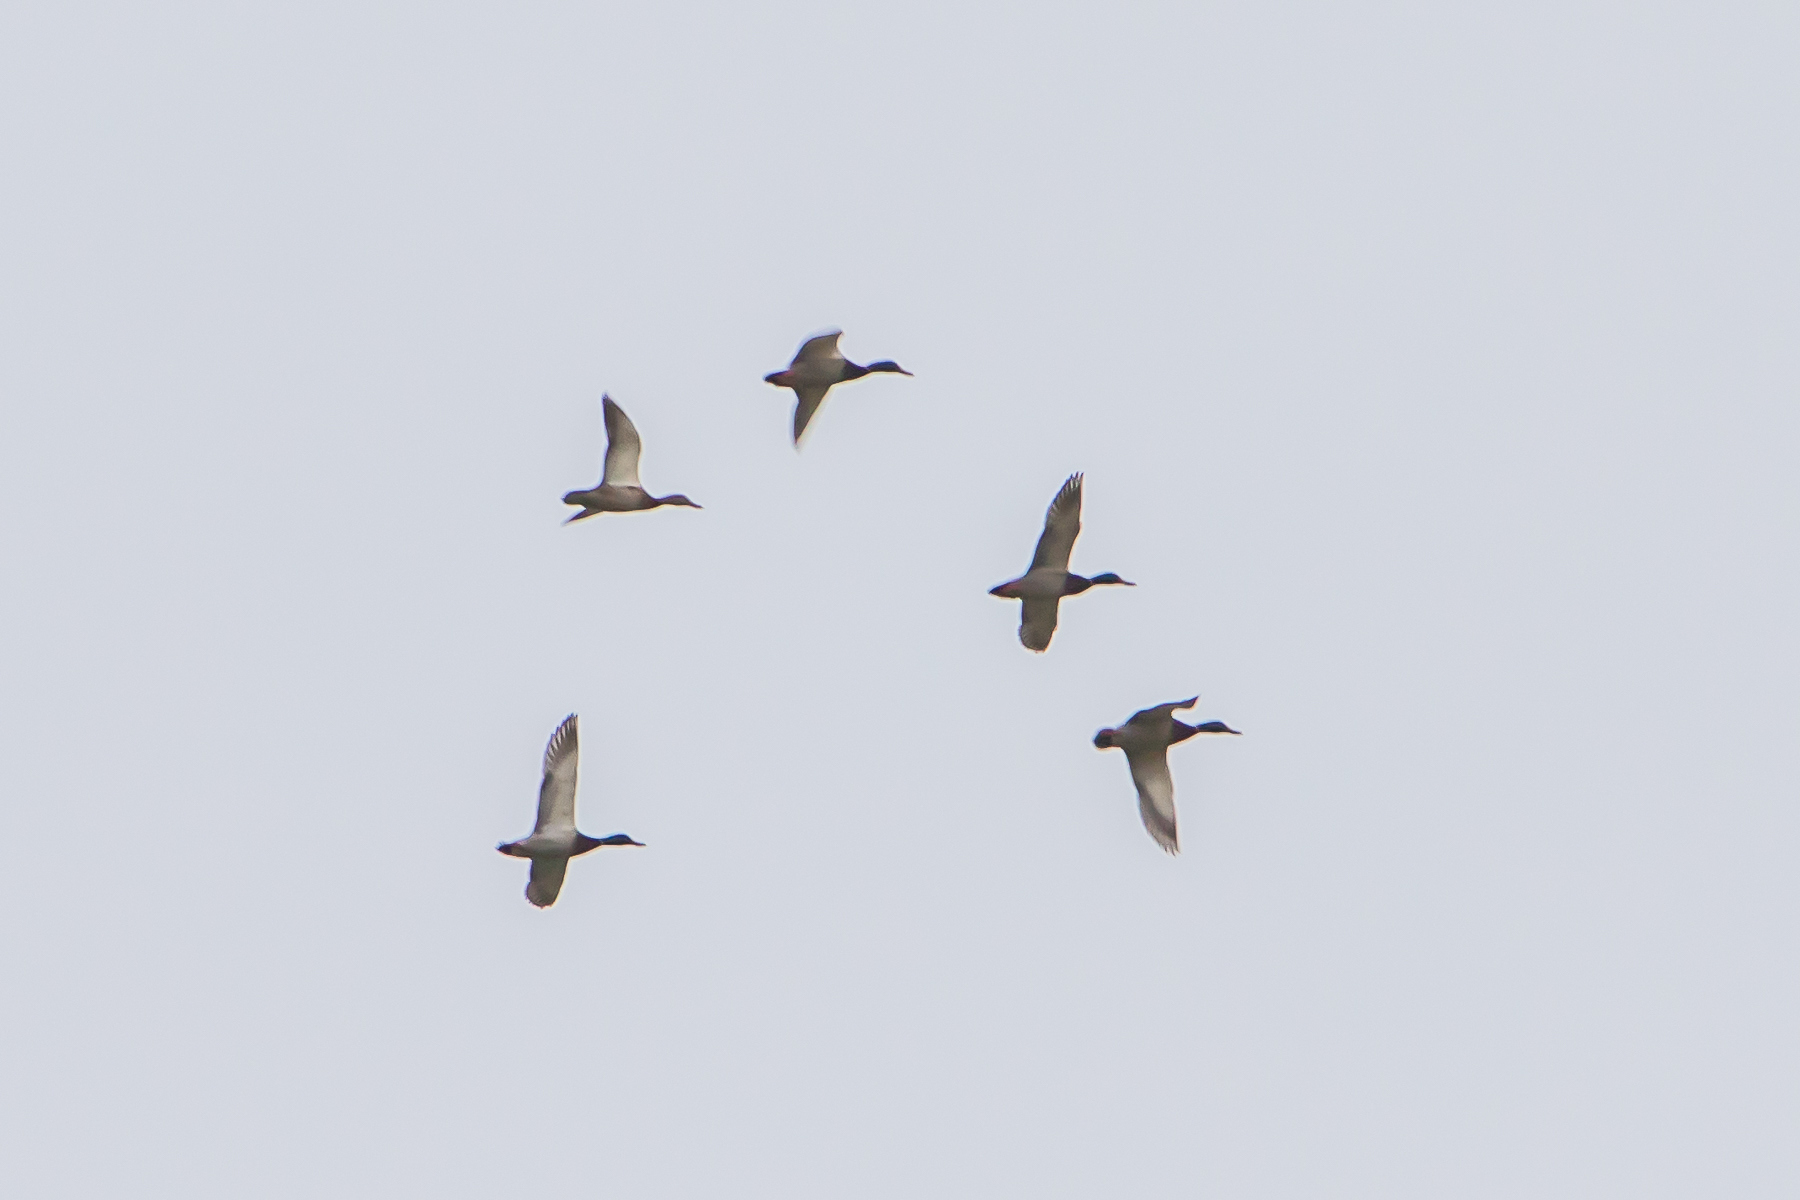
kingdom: Animalia
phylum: Chordata
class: Aves
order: Anseriformes
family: Anatidae
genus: Anas
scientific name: Anas platyrhynchos
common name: Mallard
